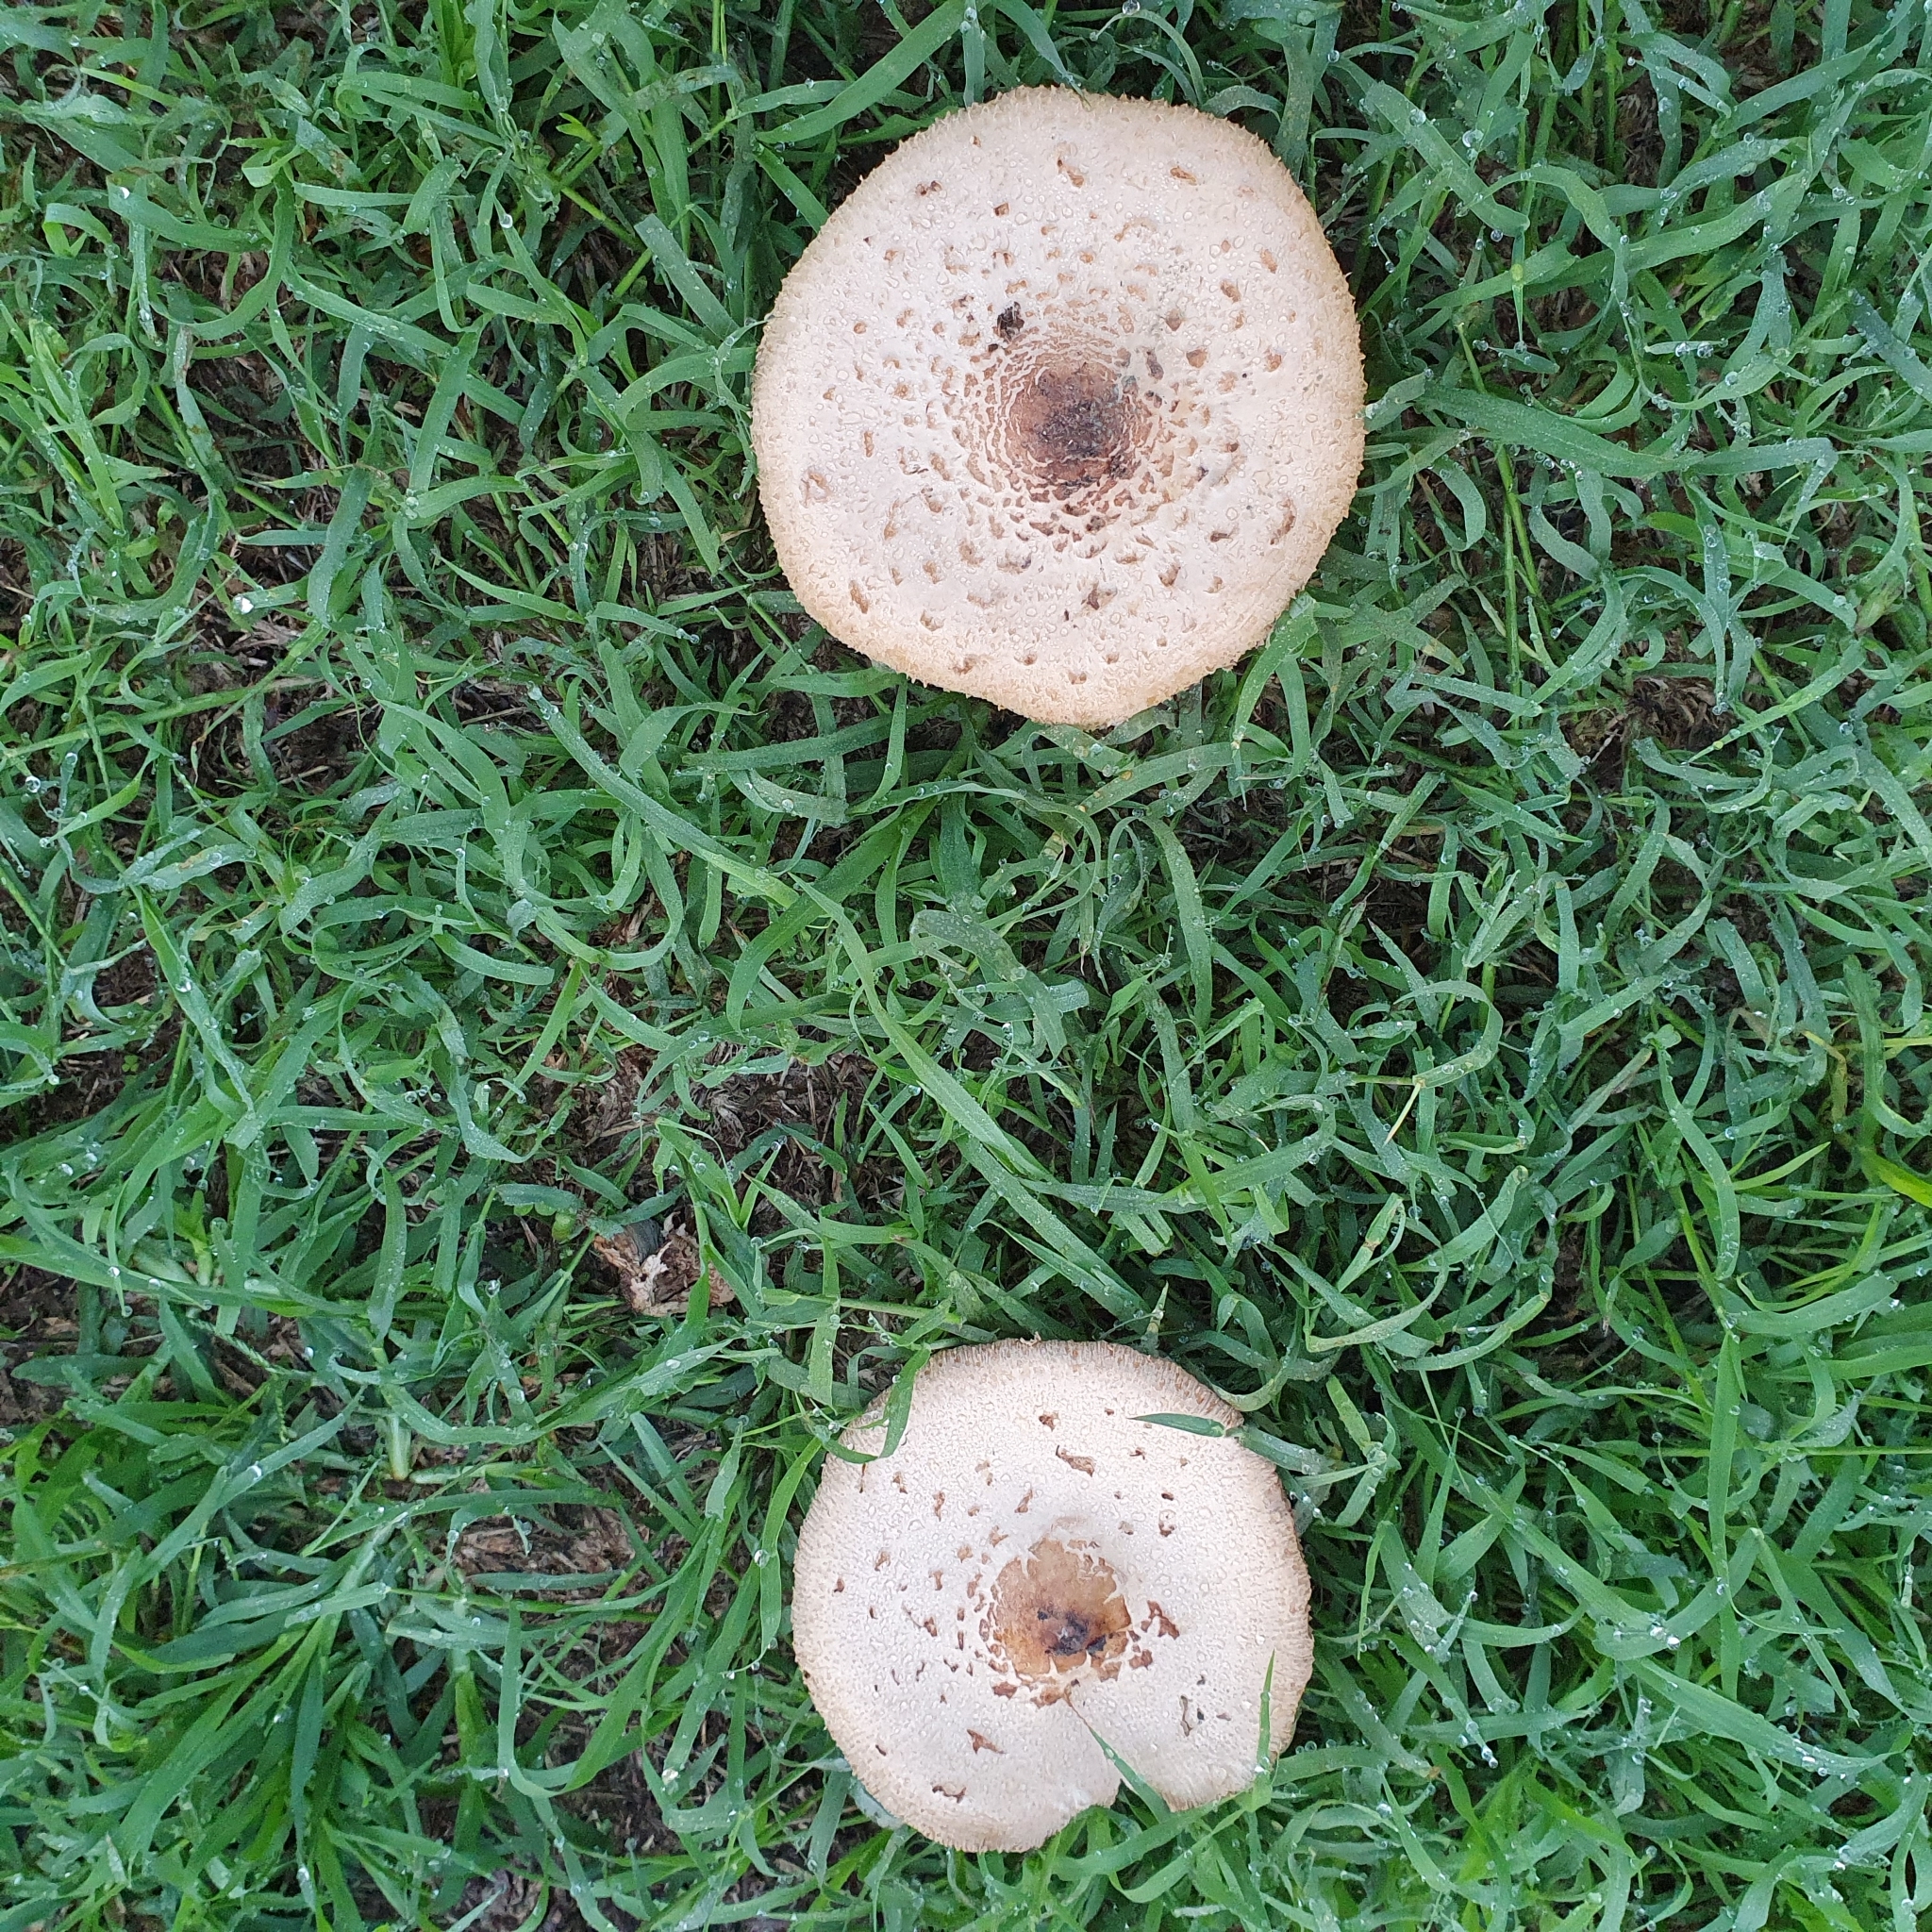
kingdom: Fungi
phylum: Basidiomycota
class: Agaricomycetes
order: Agaricales
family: Agaricaceae
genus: Chlorophyllum
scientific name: Chlorophyllum molybdites
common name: False parasol
